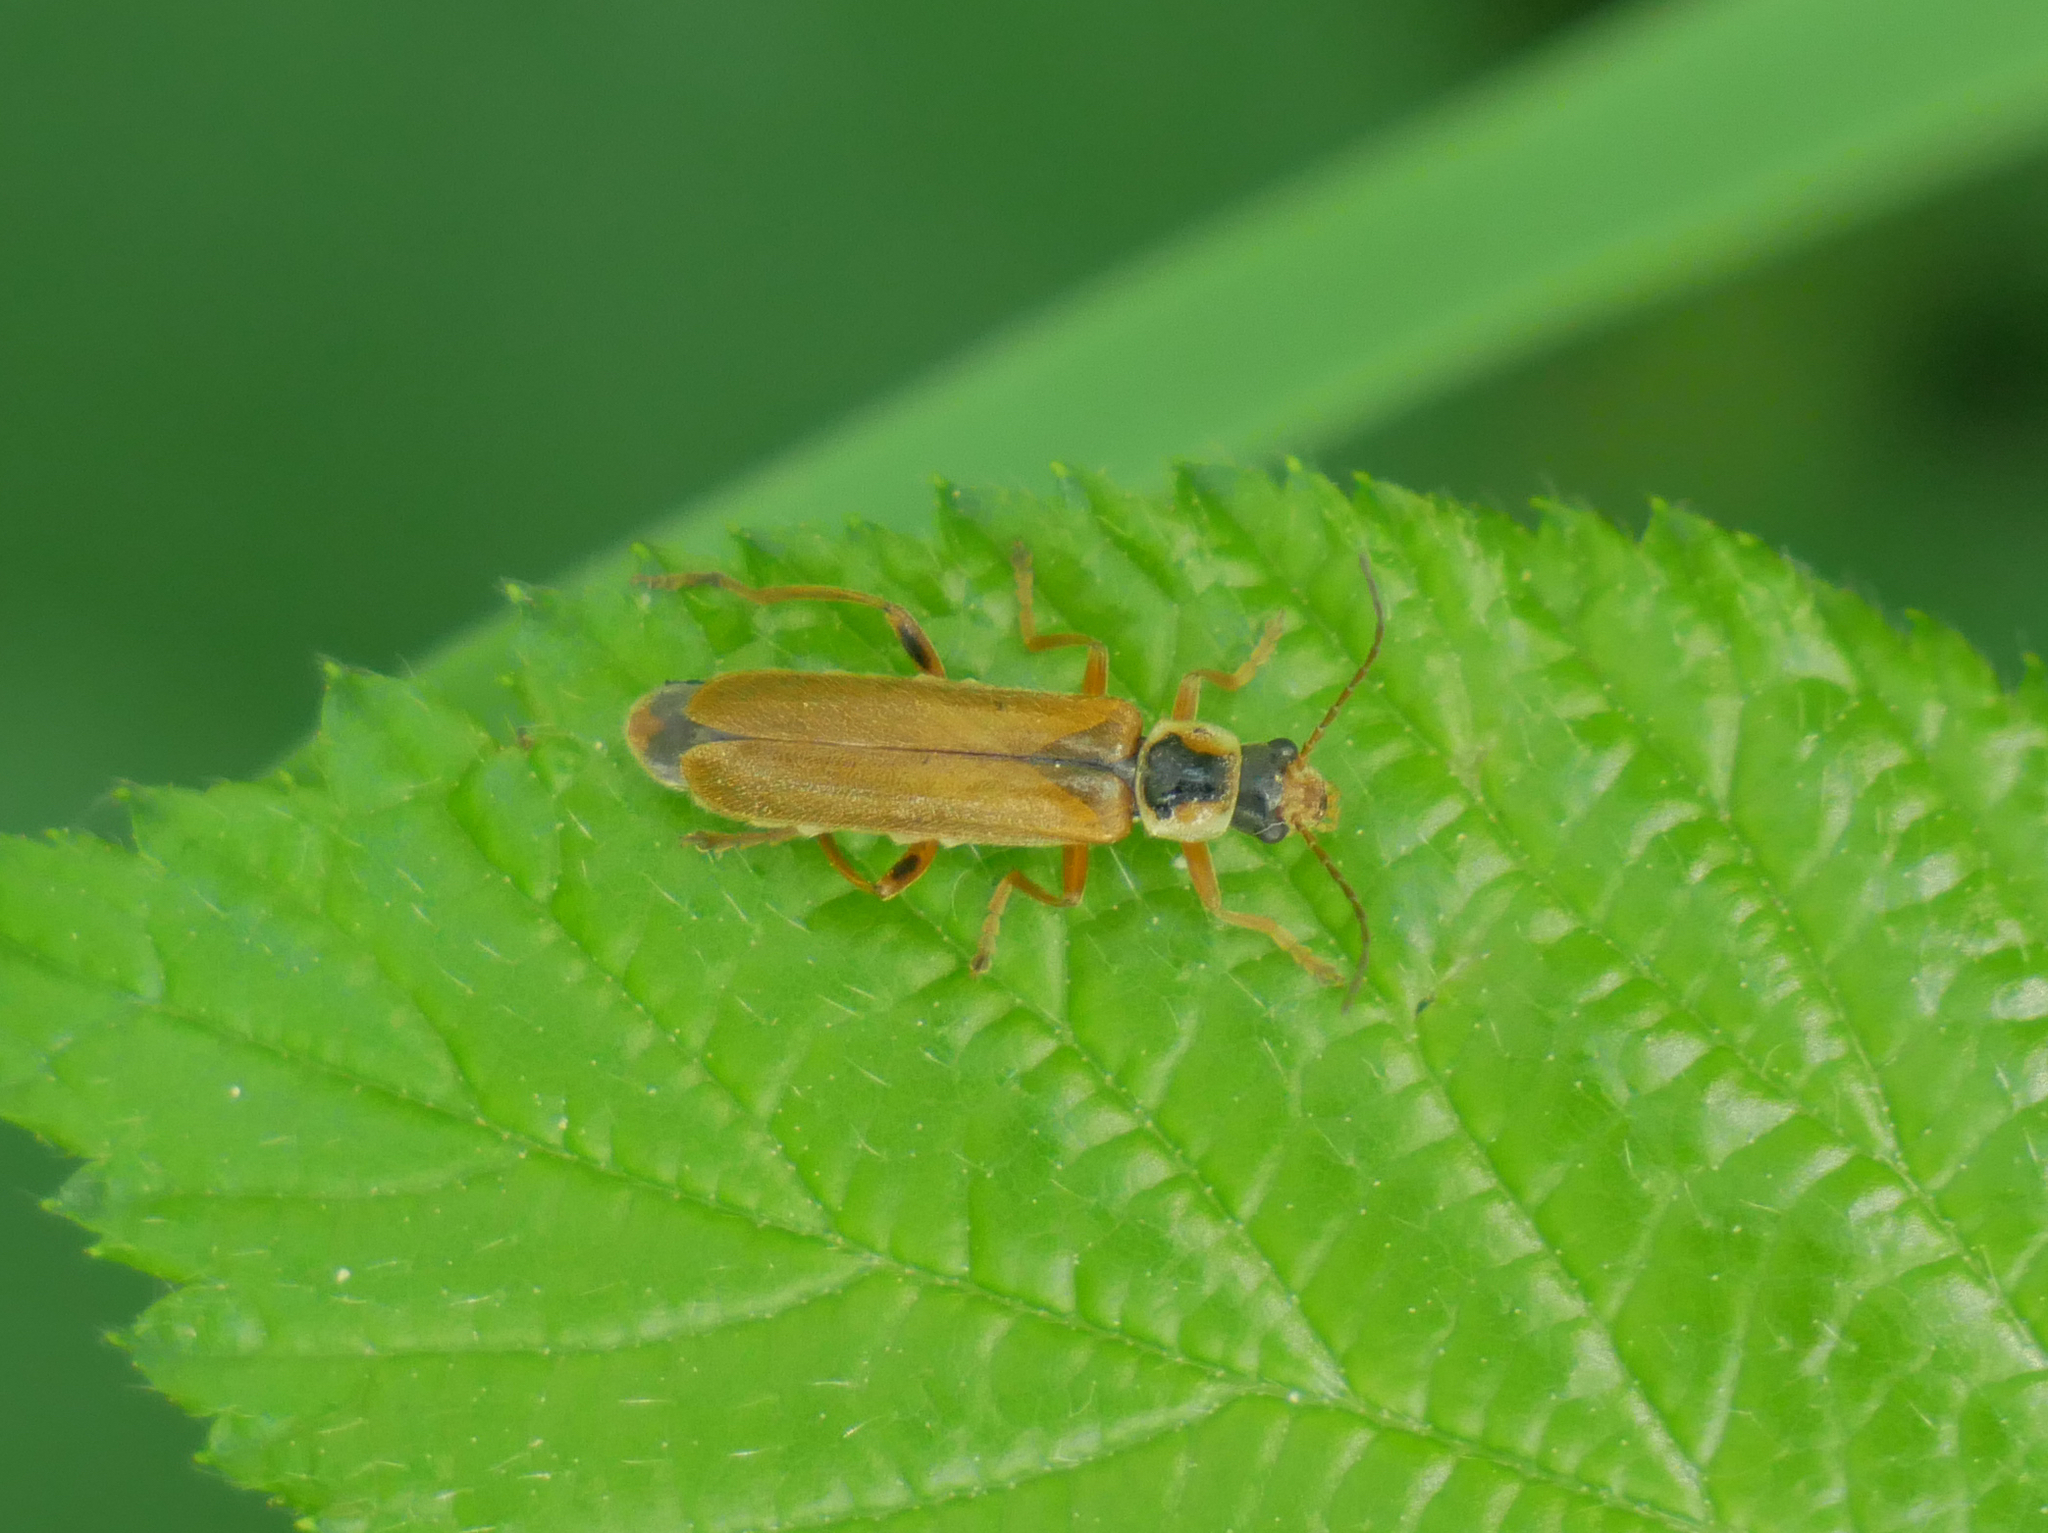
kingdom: Animalia
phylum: Arthropoda
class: Insecta
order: Coleoptera
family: Cantharidae
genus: Cantharis
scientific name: Cantharis decipiens
